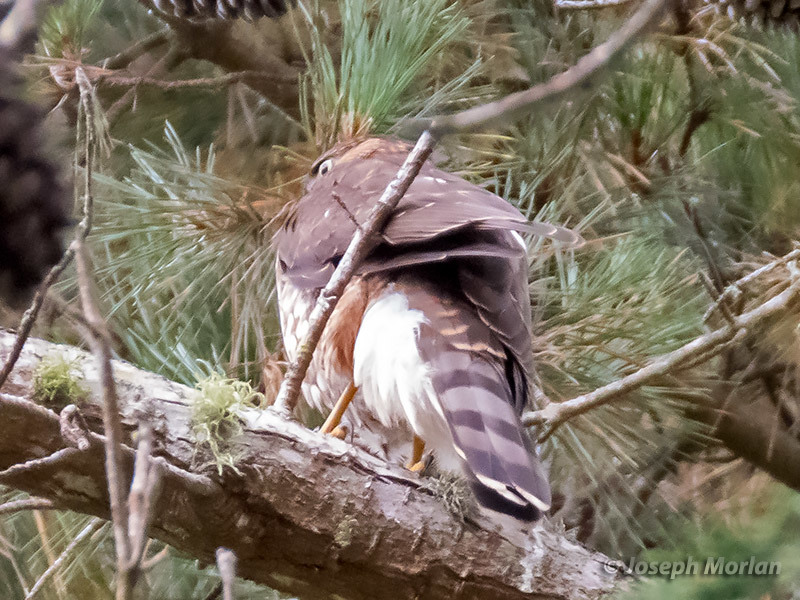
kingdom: Animalia
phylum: Chordata
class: Aves
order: Accipitriformes
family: Accipitridae
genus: Accipiter
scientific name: Accipiter cooperii
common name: Cooper's hawk
